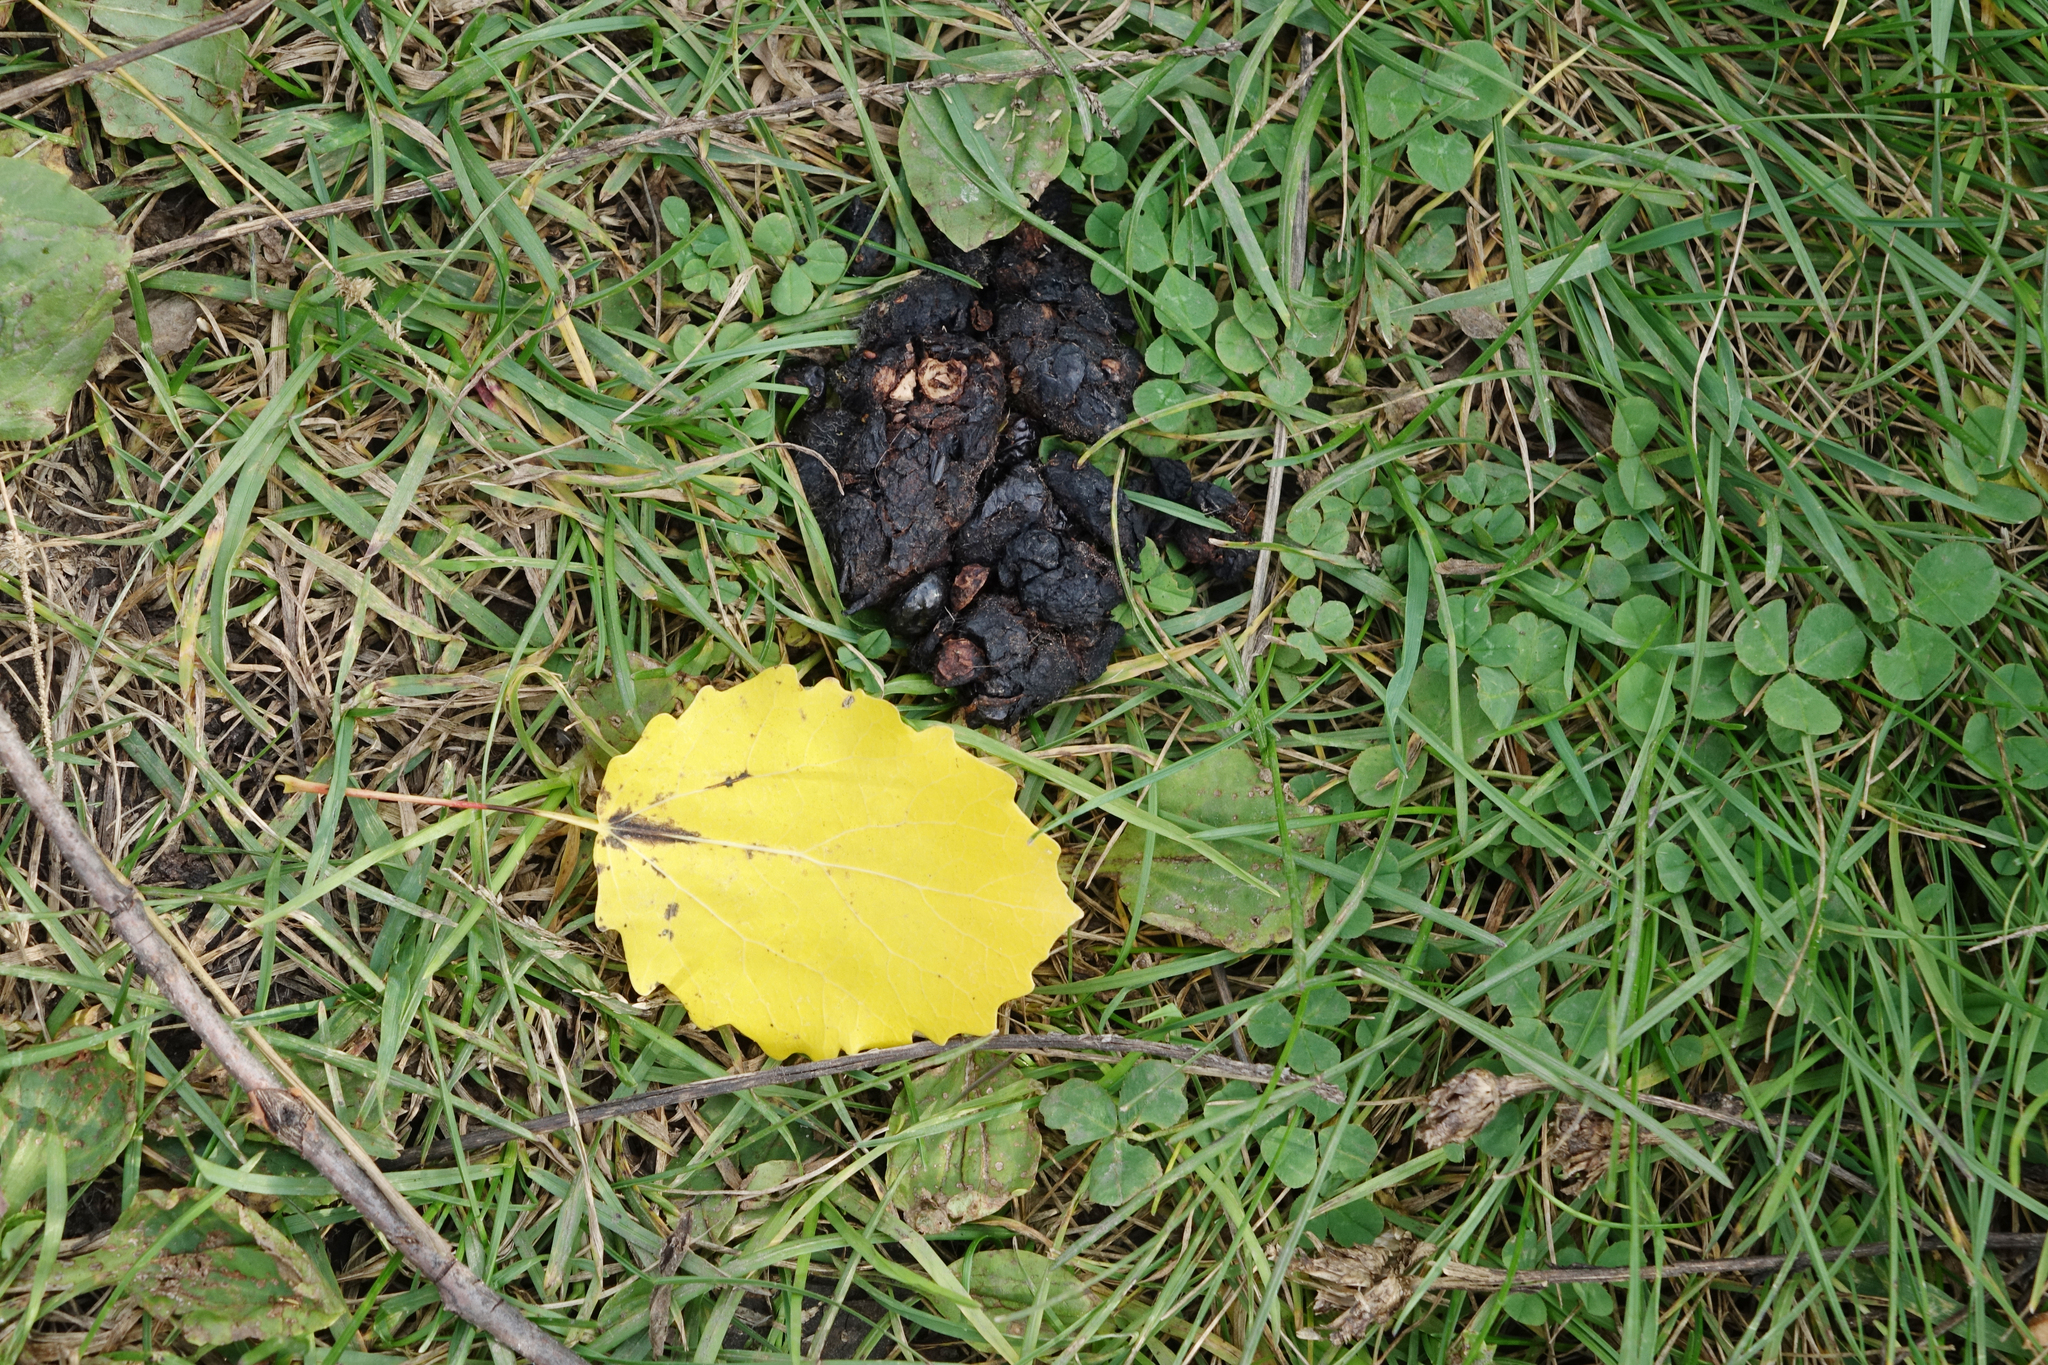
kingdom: Plantae
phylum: Tracheophyta
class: Magnoliopsida
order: Fabales
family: Fabaceae
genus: Trifolium
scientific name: Trifolium repens
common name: White clover
